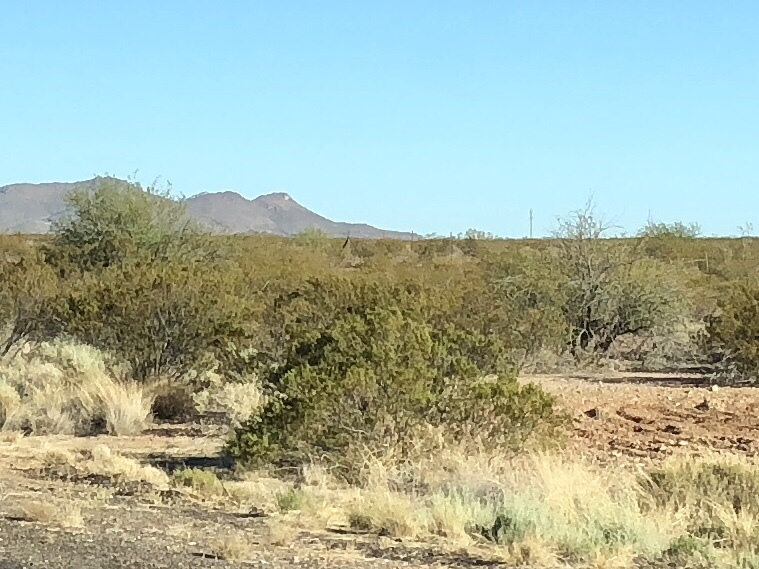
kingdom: Plantae
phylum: Tracheophyta
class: Magnoliopsida
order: Zygophyllales
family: Zygophyllaceae
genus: Larrea
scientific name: Larrea tridentata
